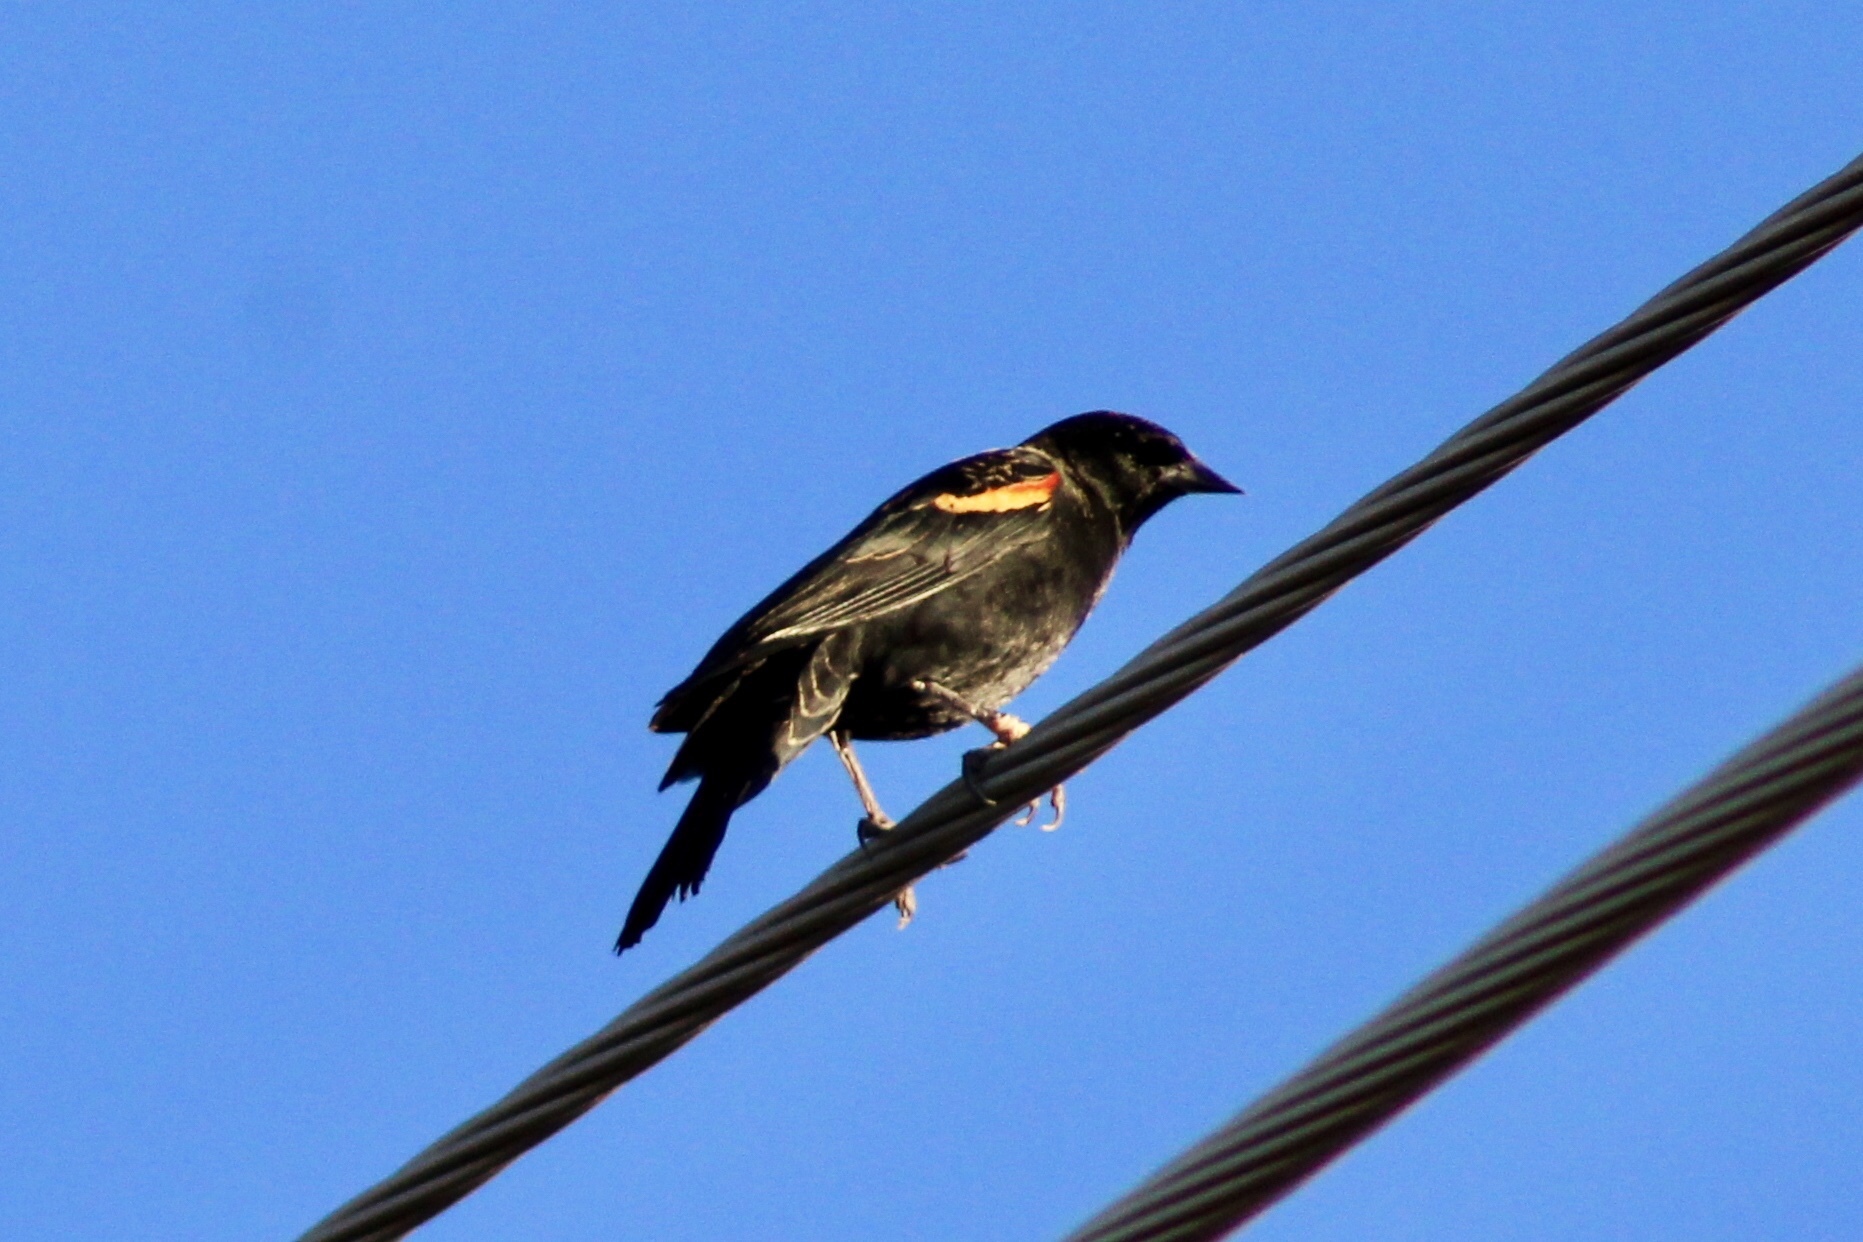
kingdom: Animalia
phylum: Chordata
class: Aves
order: Passeriformes
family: Icteridae
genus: Agelaius
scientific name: Agelaius phoeniceus
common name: Red-winged blackbird
